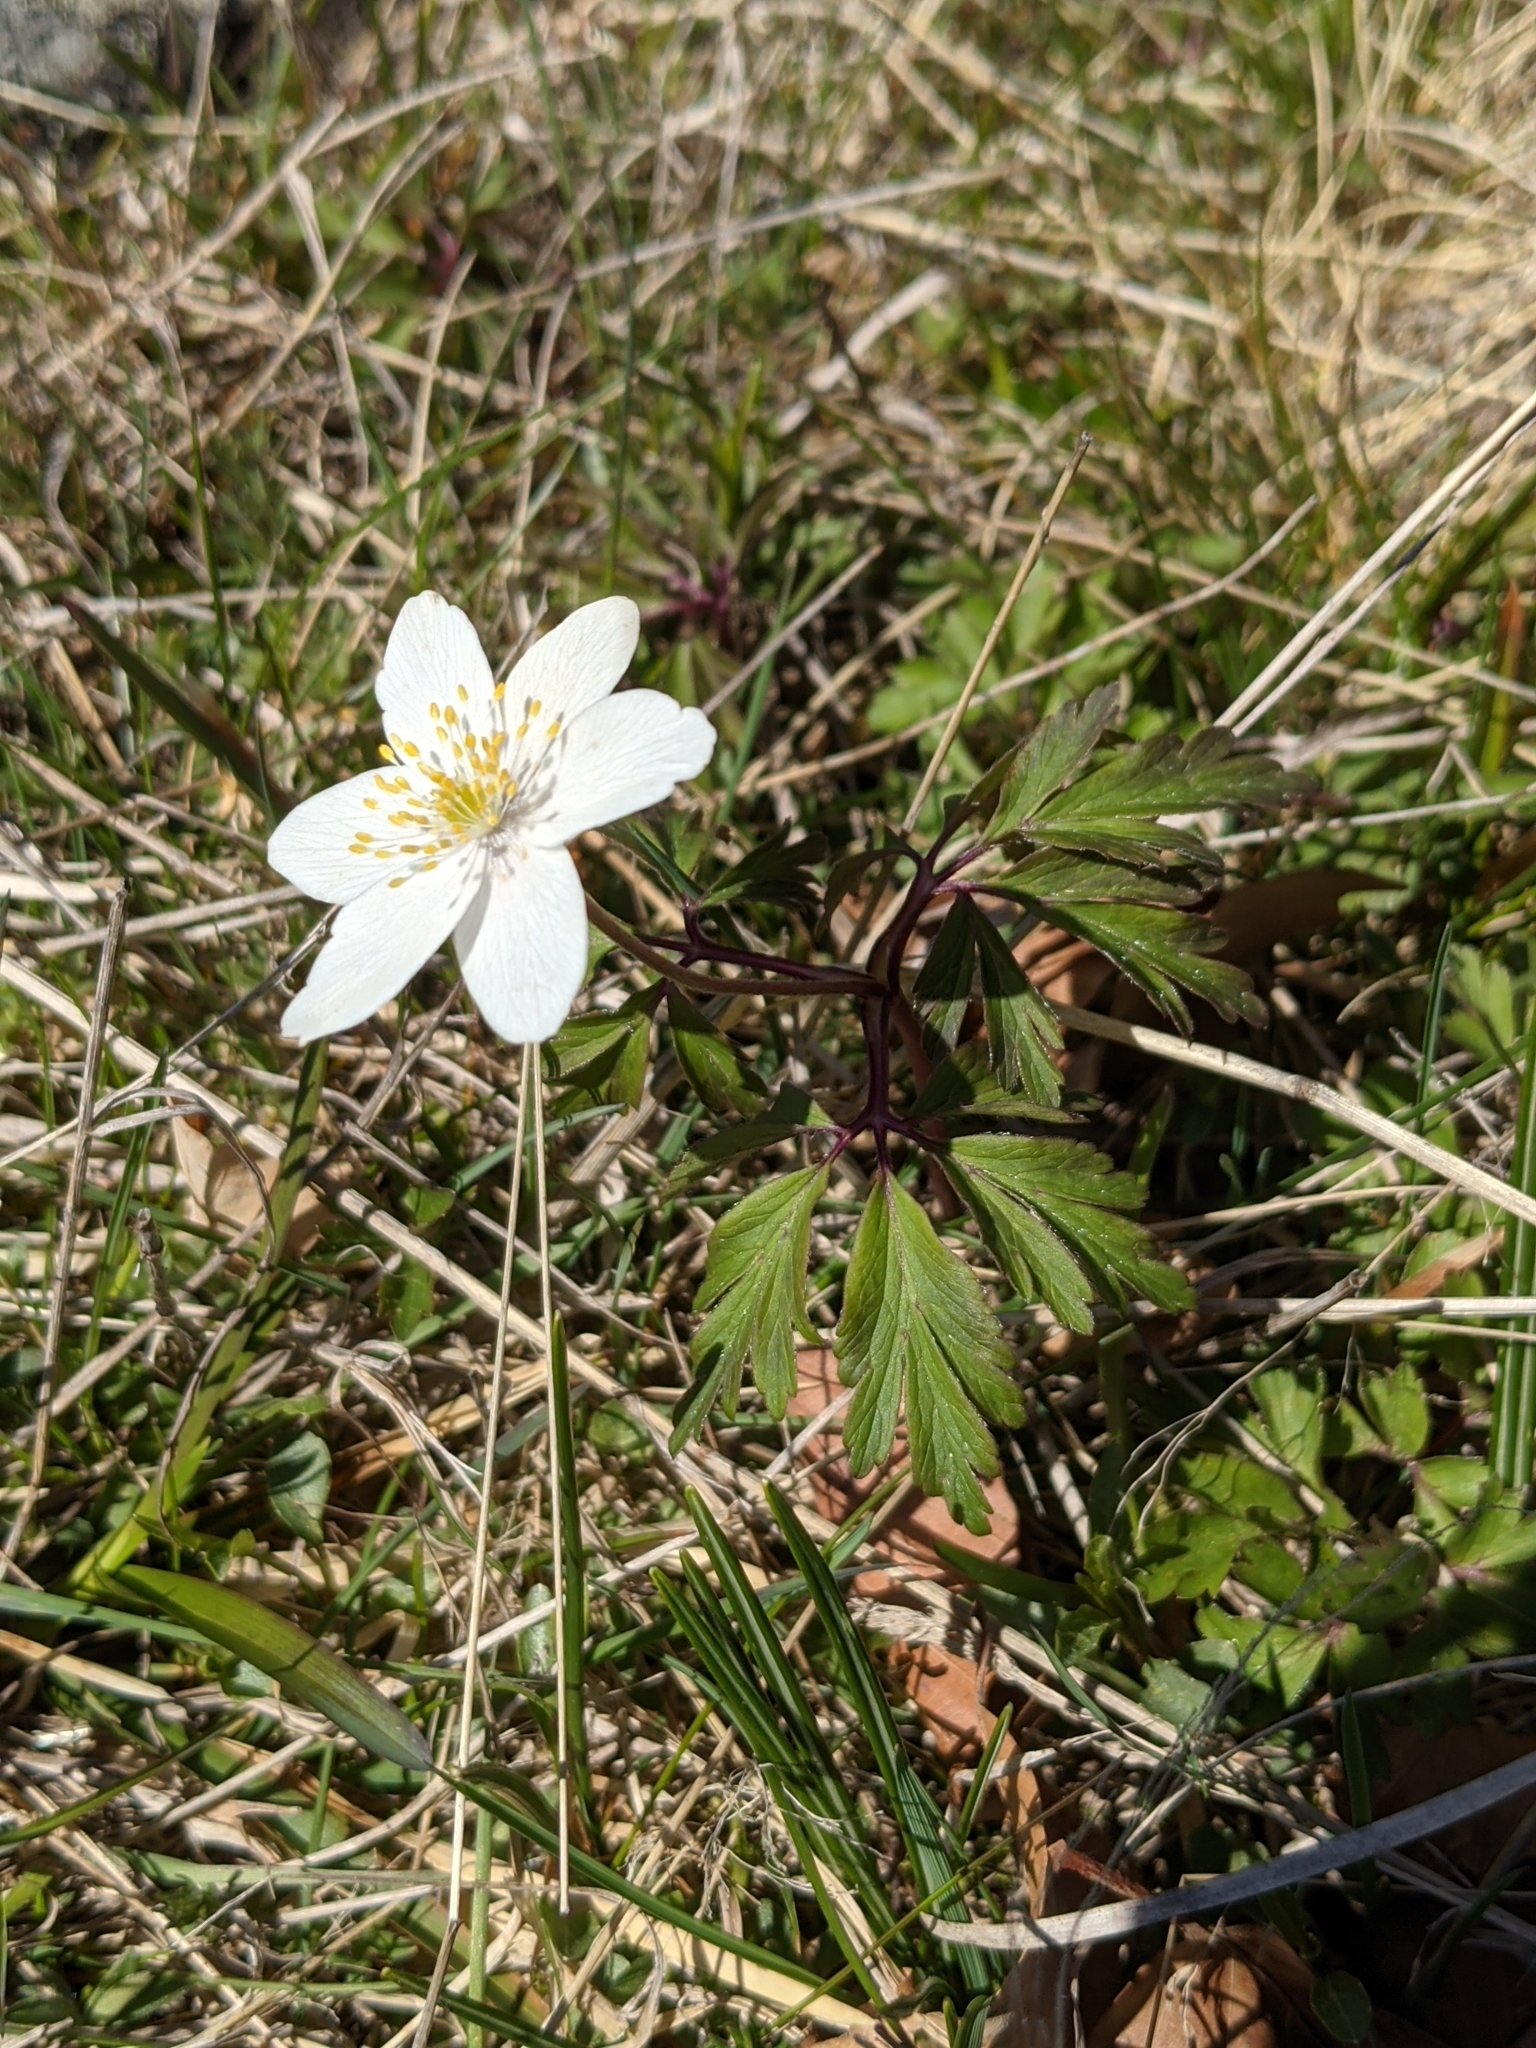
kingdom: Plantae
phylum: Tracheophyta
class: Magnoliopsida
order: Ranunculales
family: Ranunculaceae
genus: Anemone
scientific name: Anemone nemorosa
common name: Wood anemone
